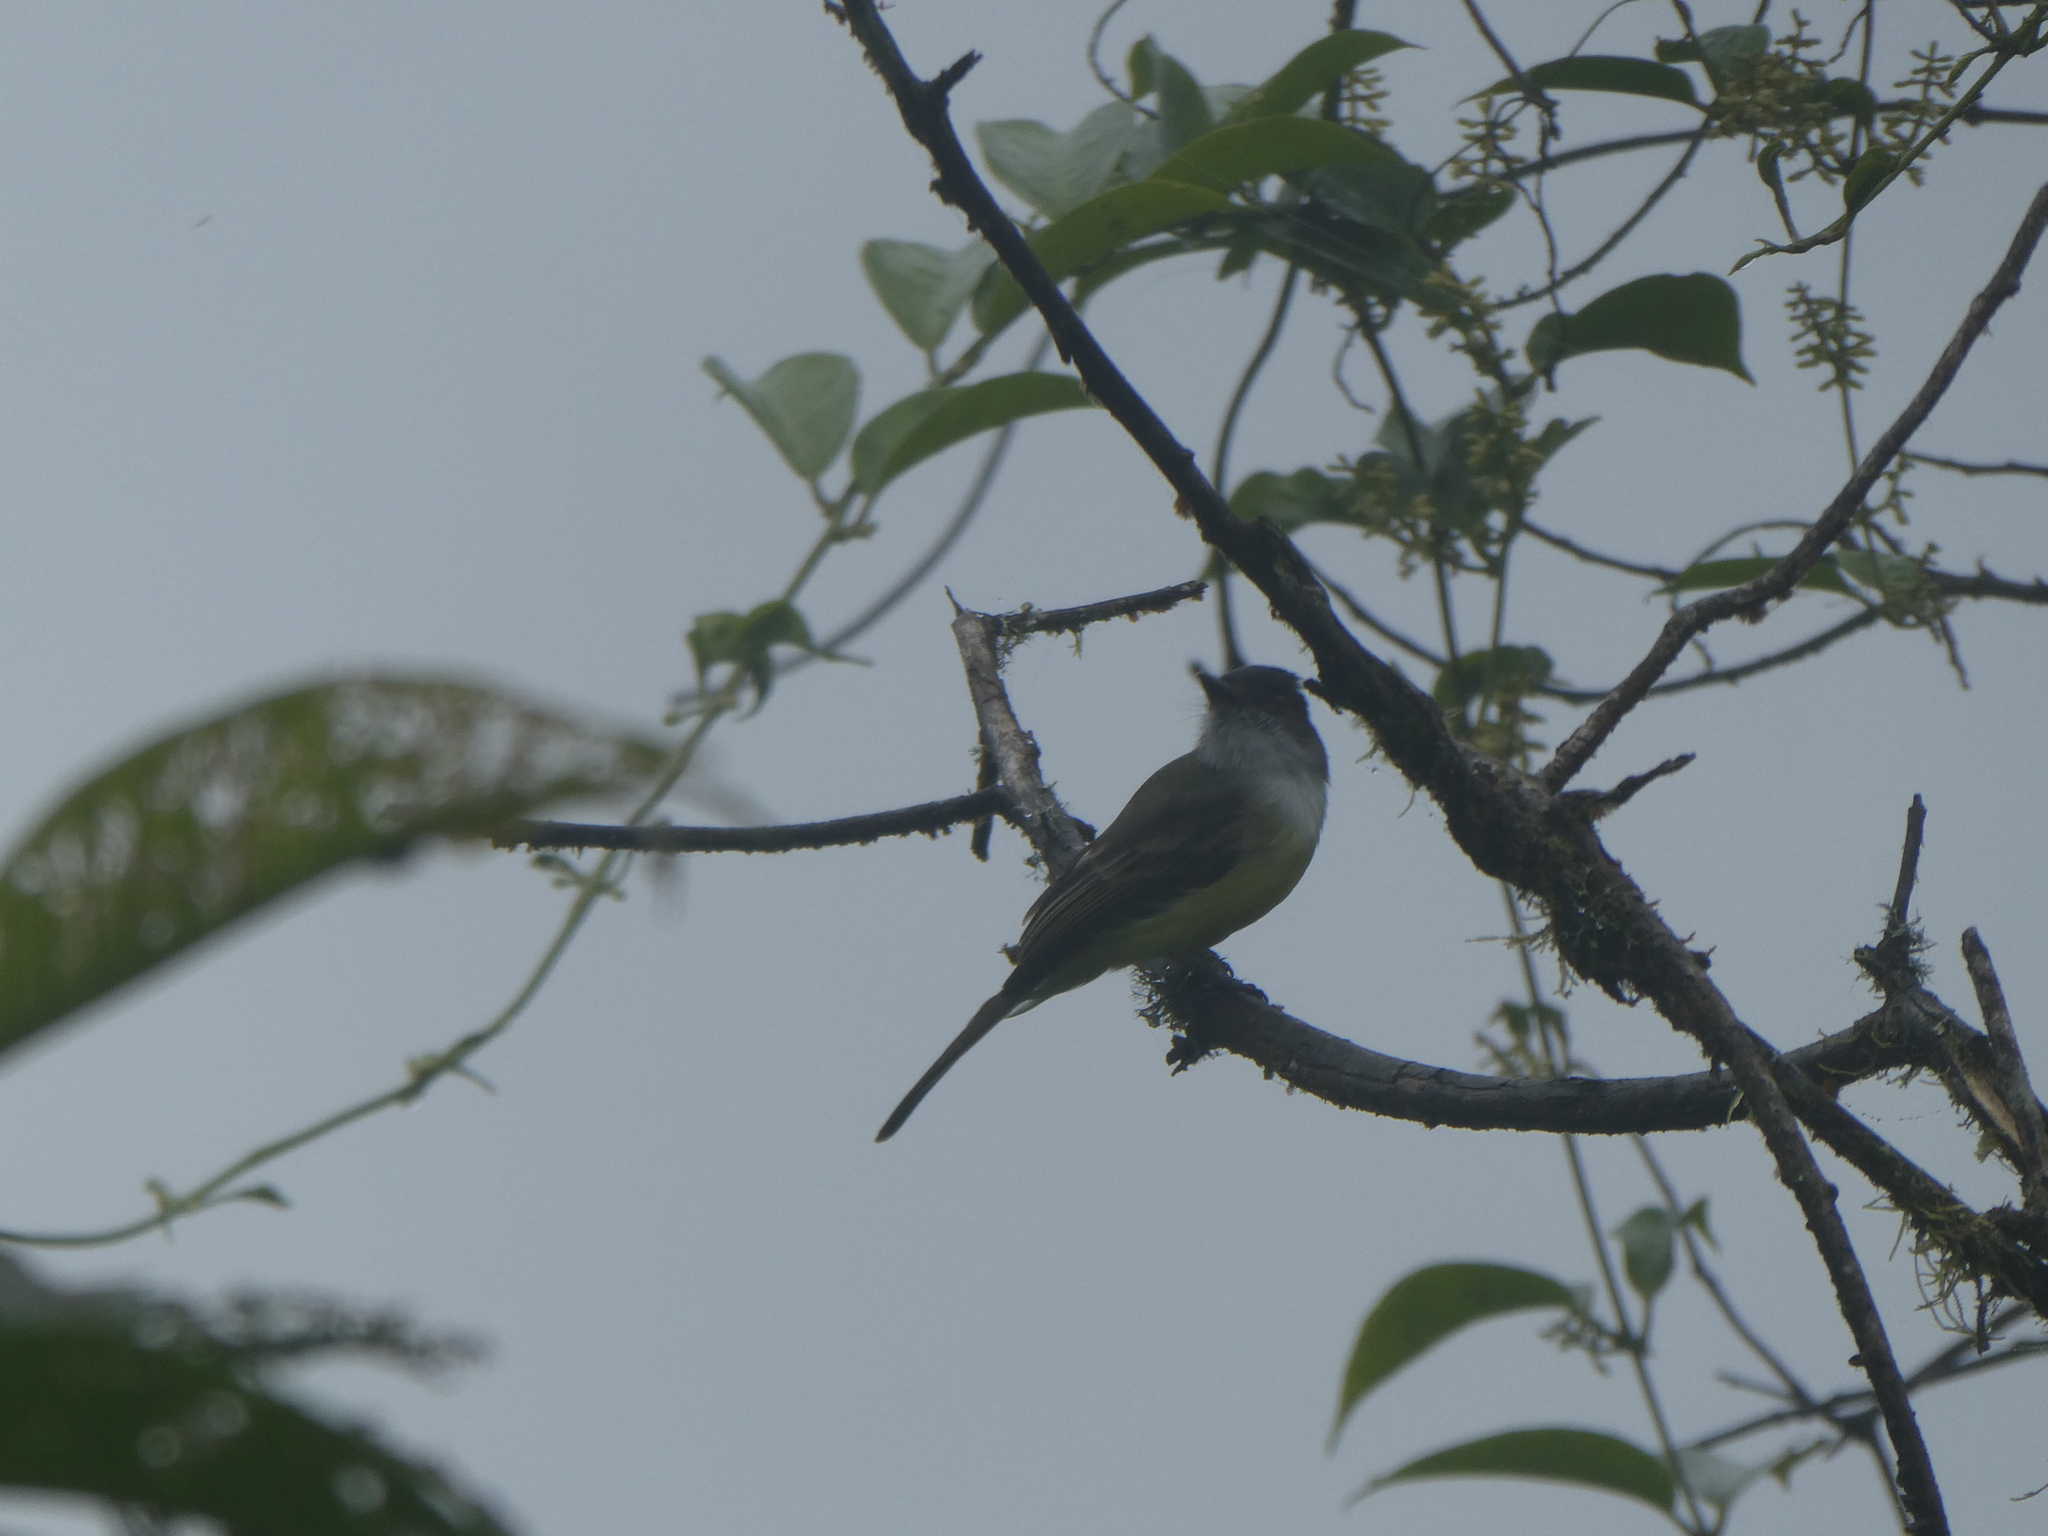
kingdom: Animalia
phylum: Chordata
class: Aves
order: Passeriformes
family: Tyrannidae
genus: Myiarchus
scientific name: Myiarchus tuberculifer
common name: Dusky-capped flycatcher
